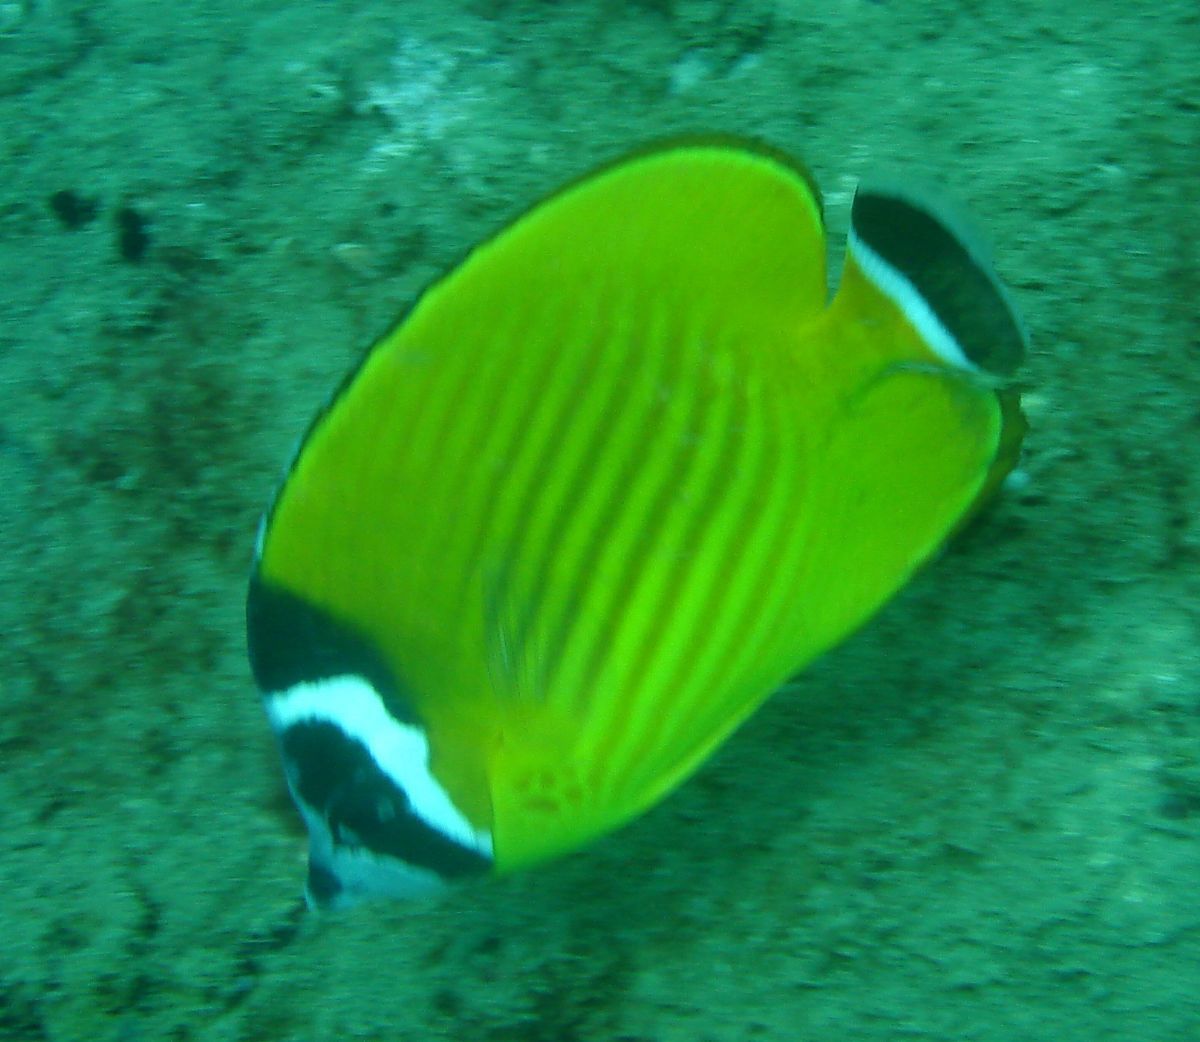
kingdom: Animalia
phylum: Chordata
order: Perciformes
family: Chaetodontidae
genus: Chaetodon
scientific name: Chaetodon wiebeli
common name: Butterflyfish
